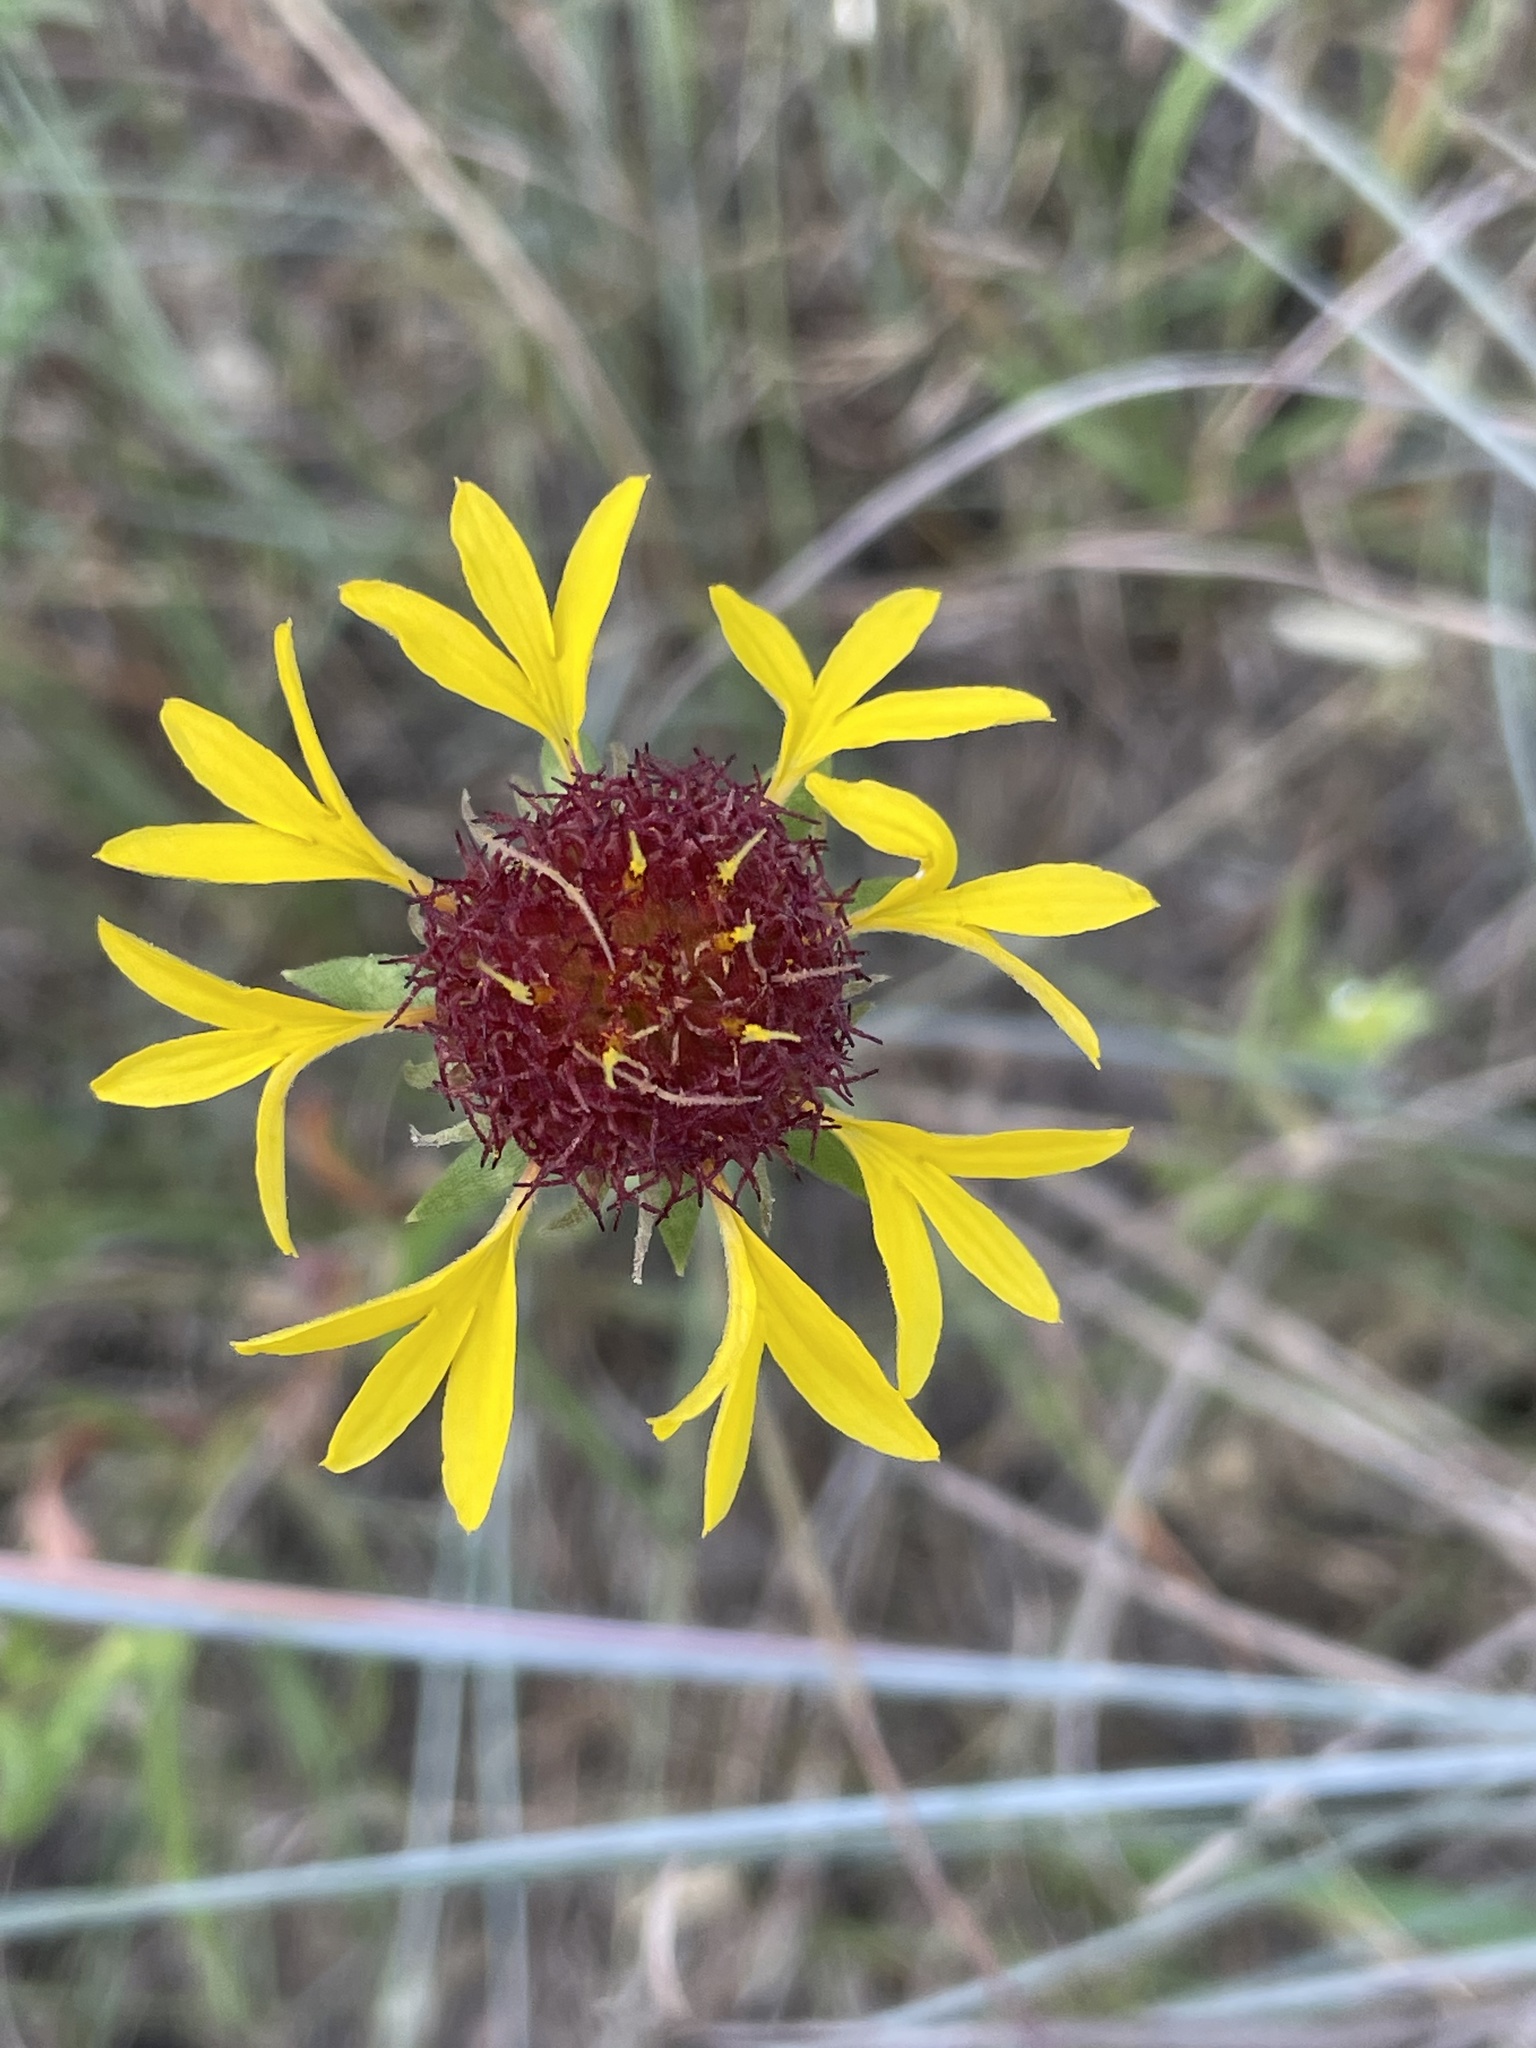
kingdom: Plantae
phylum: Tracheophyta
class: Magnoliopsida
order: Asterales
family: Asteraceae
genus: Gaillardia
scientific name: Gaillardia aestivalis
